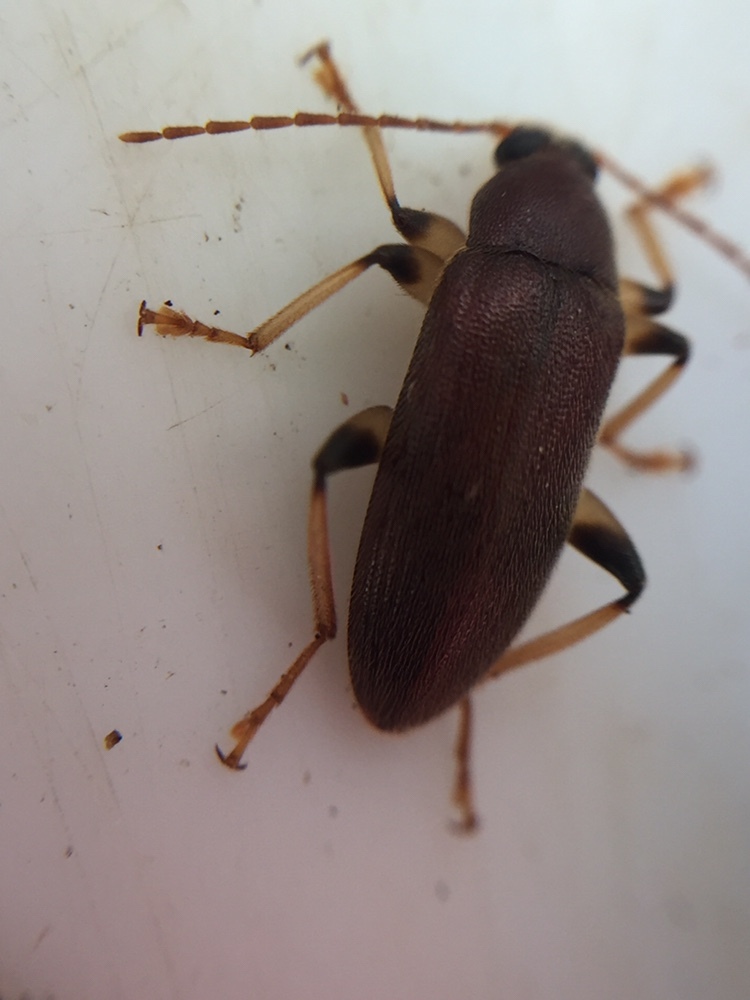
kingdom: Animalia
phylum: Arthropoda
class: Insecta
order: Coleoptera
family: Tenebrionidae
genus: Homotrysis
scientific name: Homotrysis
